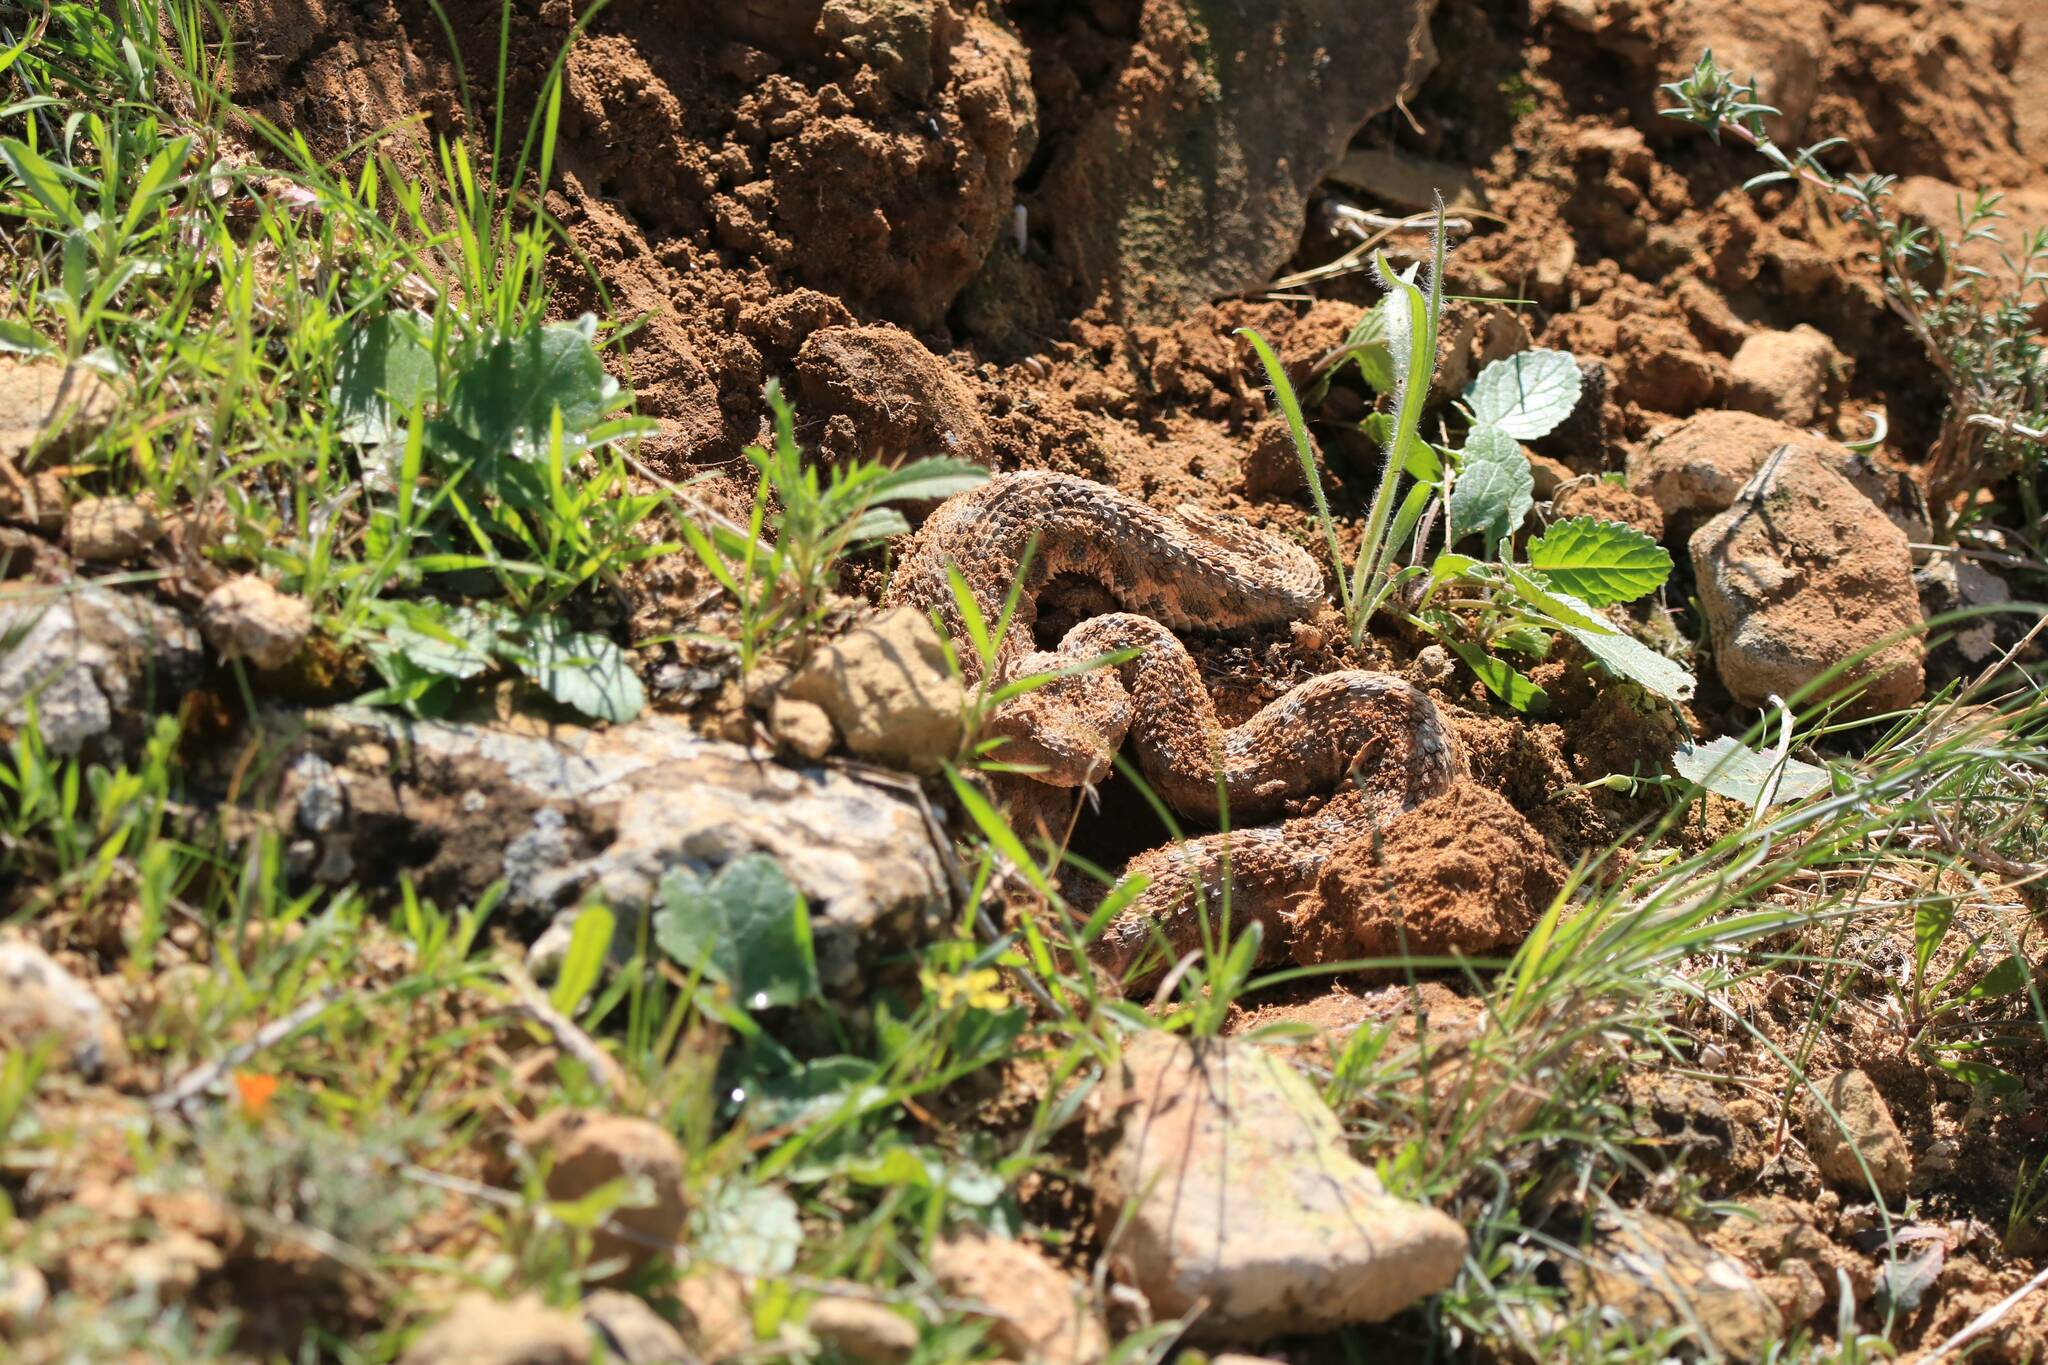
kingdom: Animalia
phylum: Chordata
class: Squamata
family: Viperidae
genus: Cerastes
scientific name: Cerastes cerastes
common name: Desert horned viper
